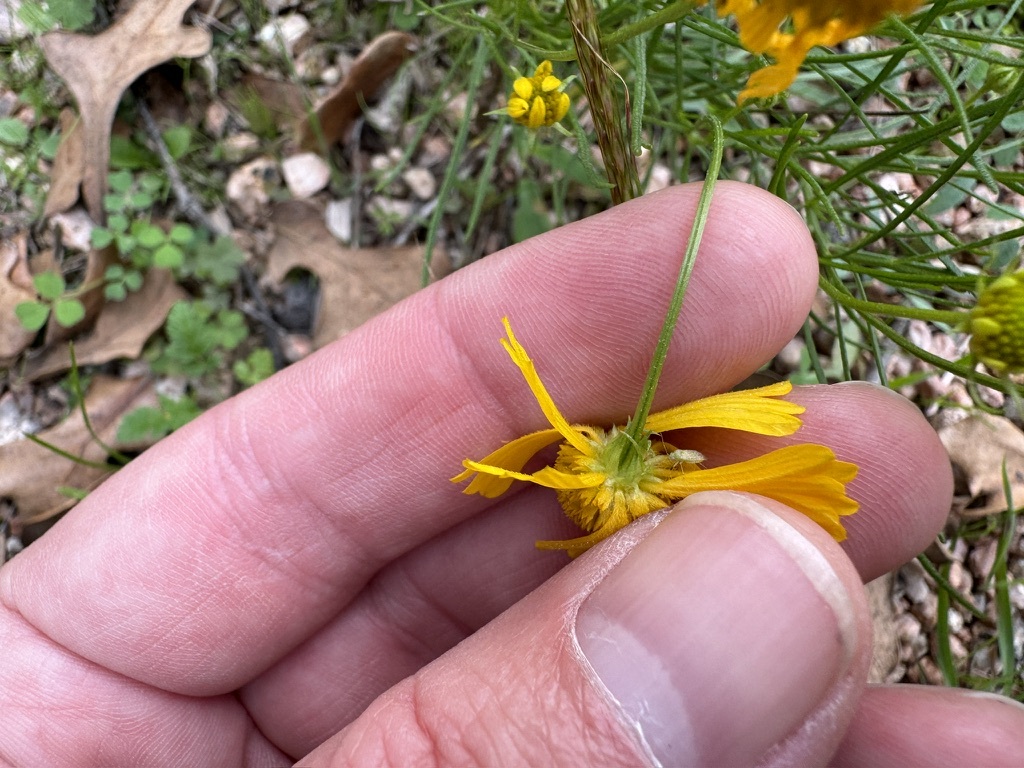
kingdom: Plantae
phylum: Tracheophyta
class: Magnoliopsida
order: Asterales
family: Asteraceae
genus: Helenium
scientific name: Helenium amarum
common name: Bitter sneezeweed
